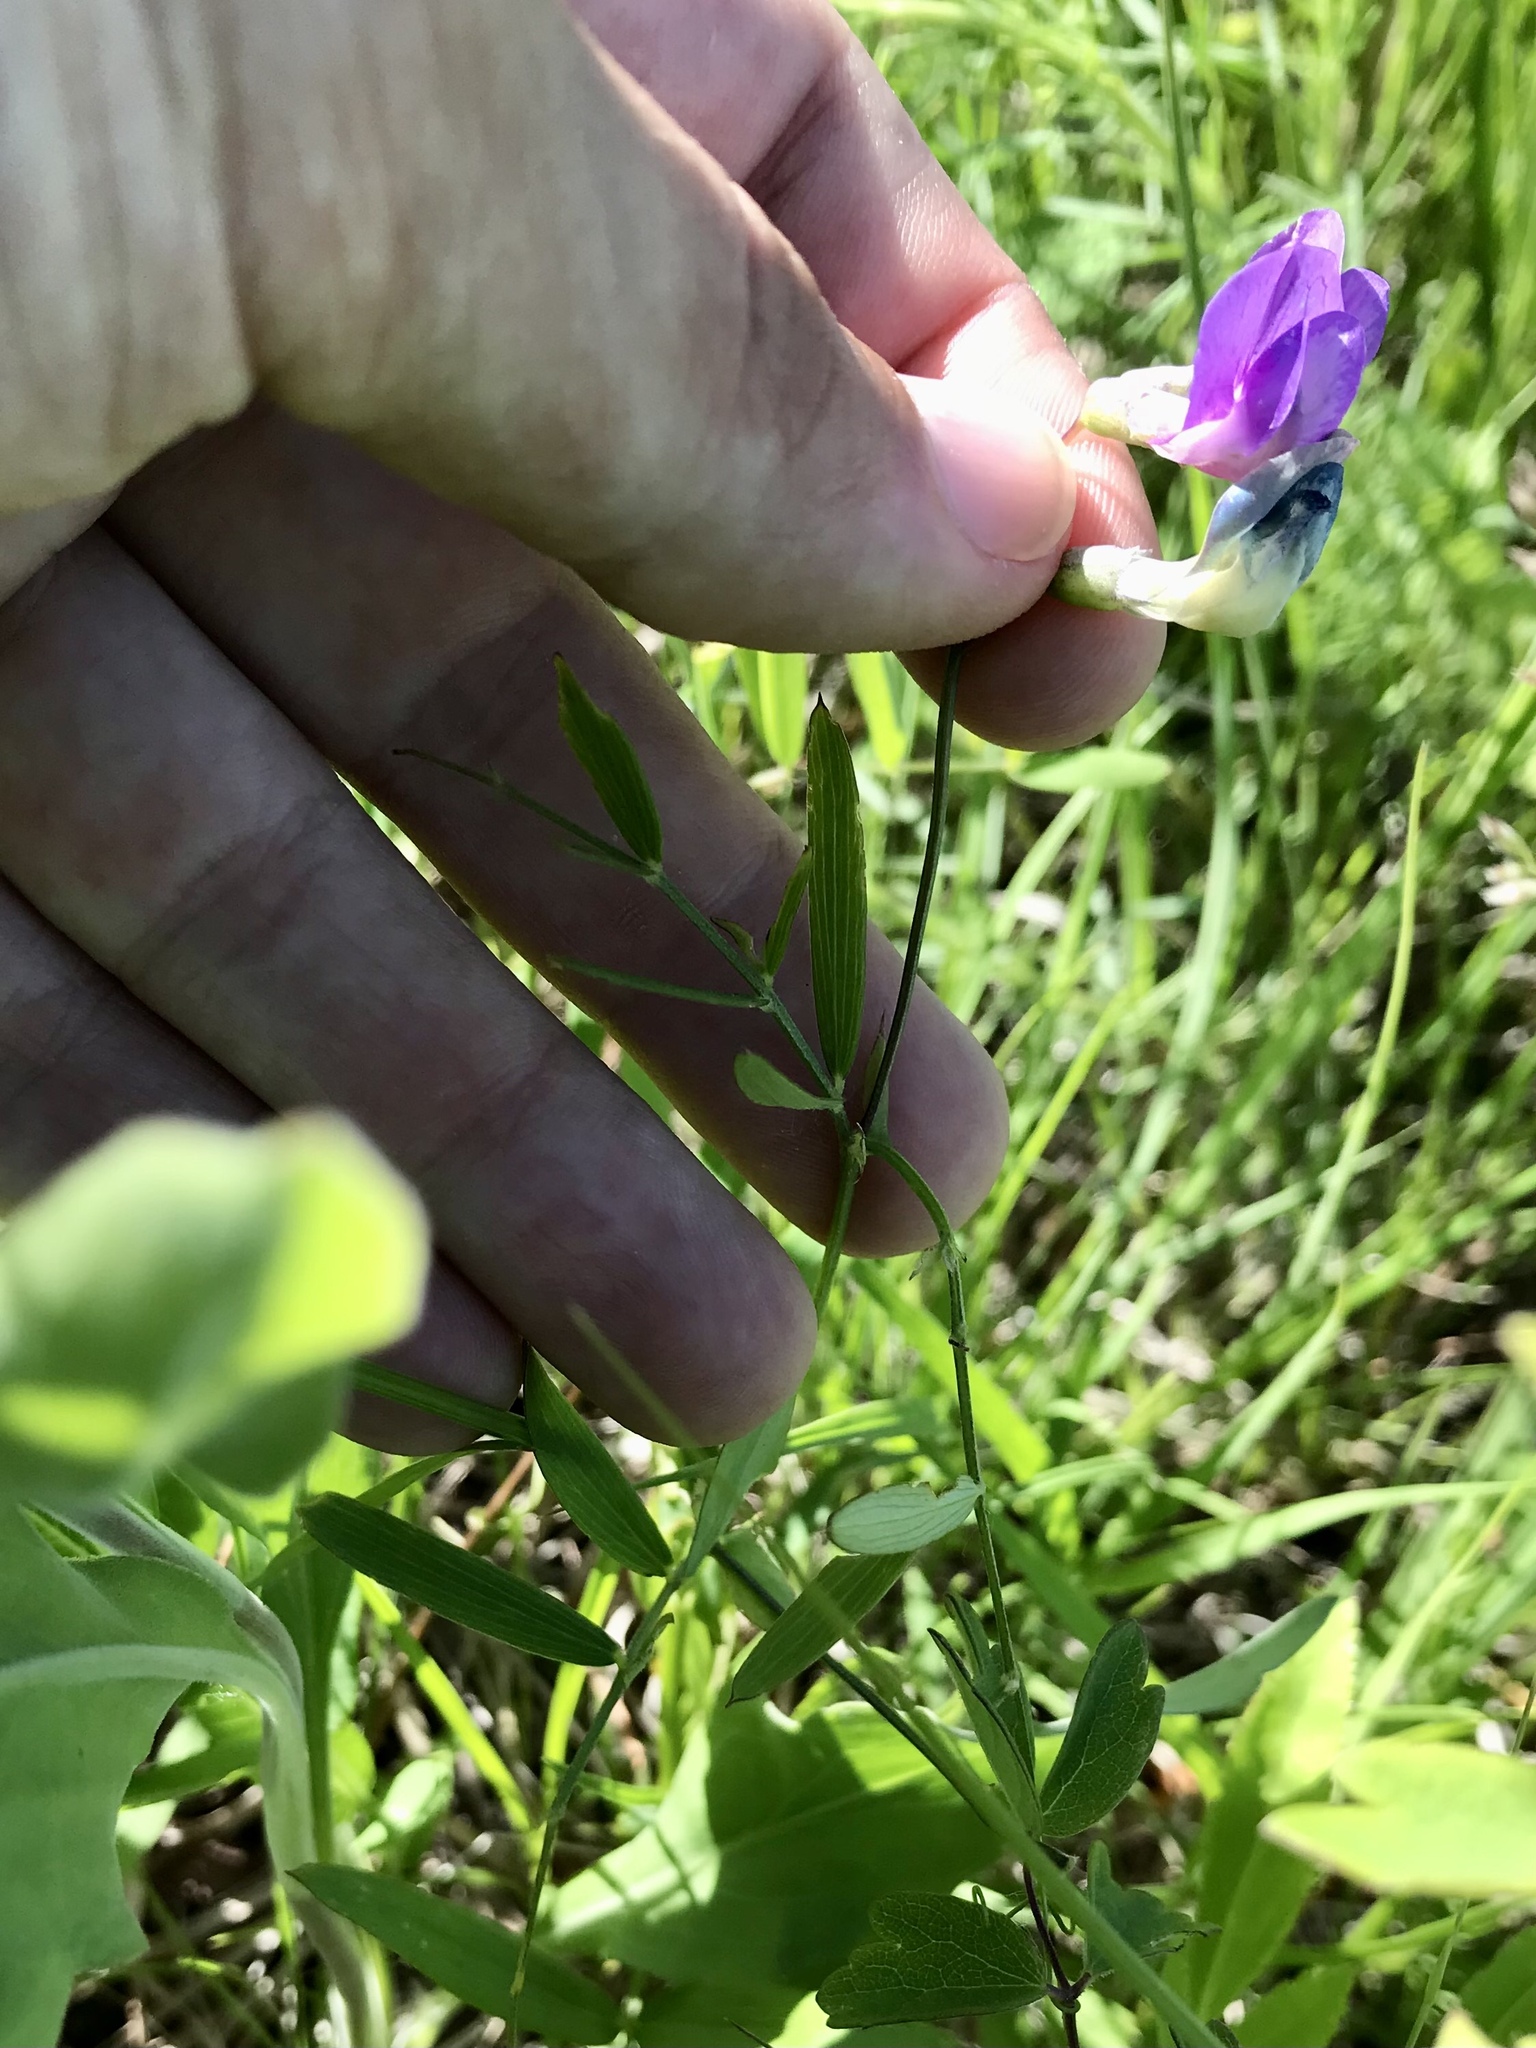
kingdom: Plantae
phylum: Tracheophyta
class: Magnoliopsida
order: Fabales
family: Fabaceae
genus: Lathyrus
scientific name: Lathyrus palustris
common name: Marsh pea
